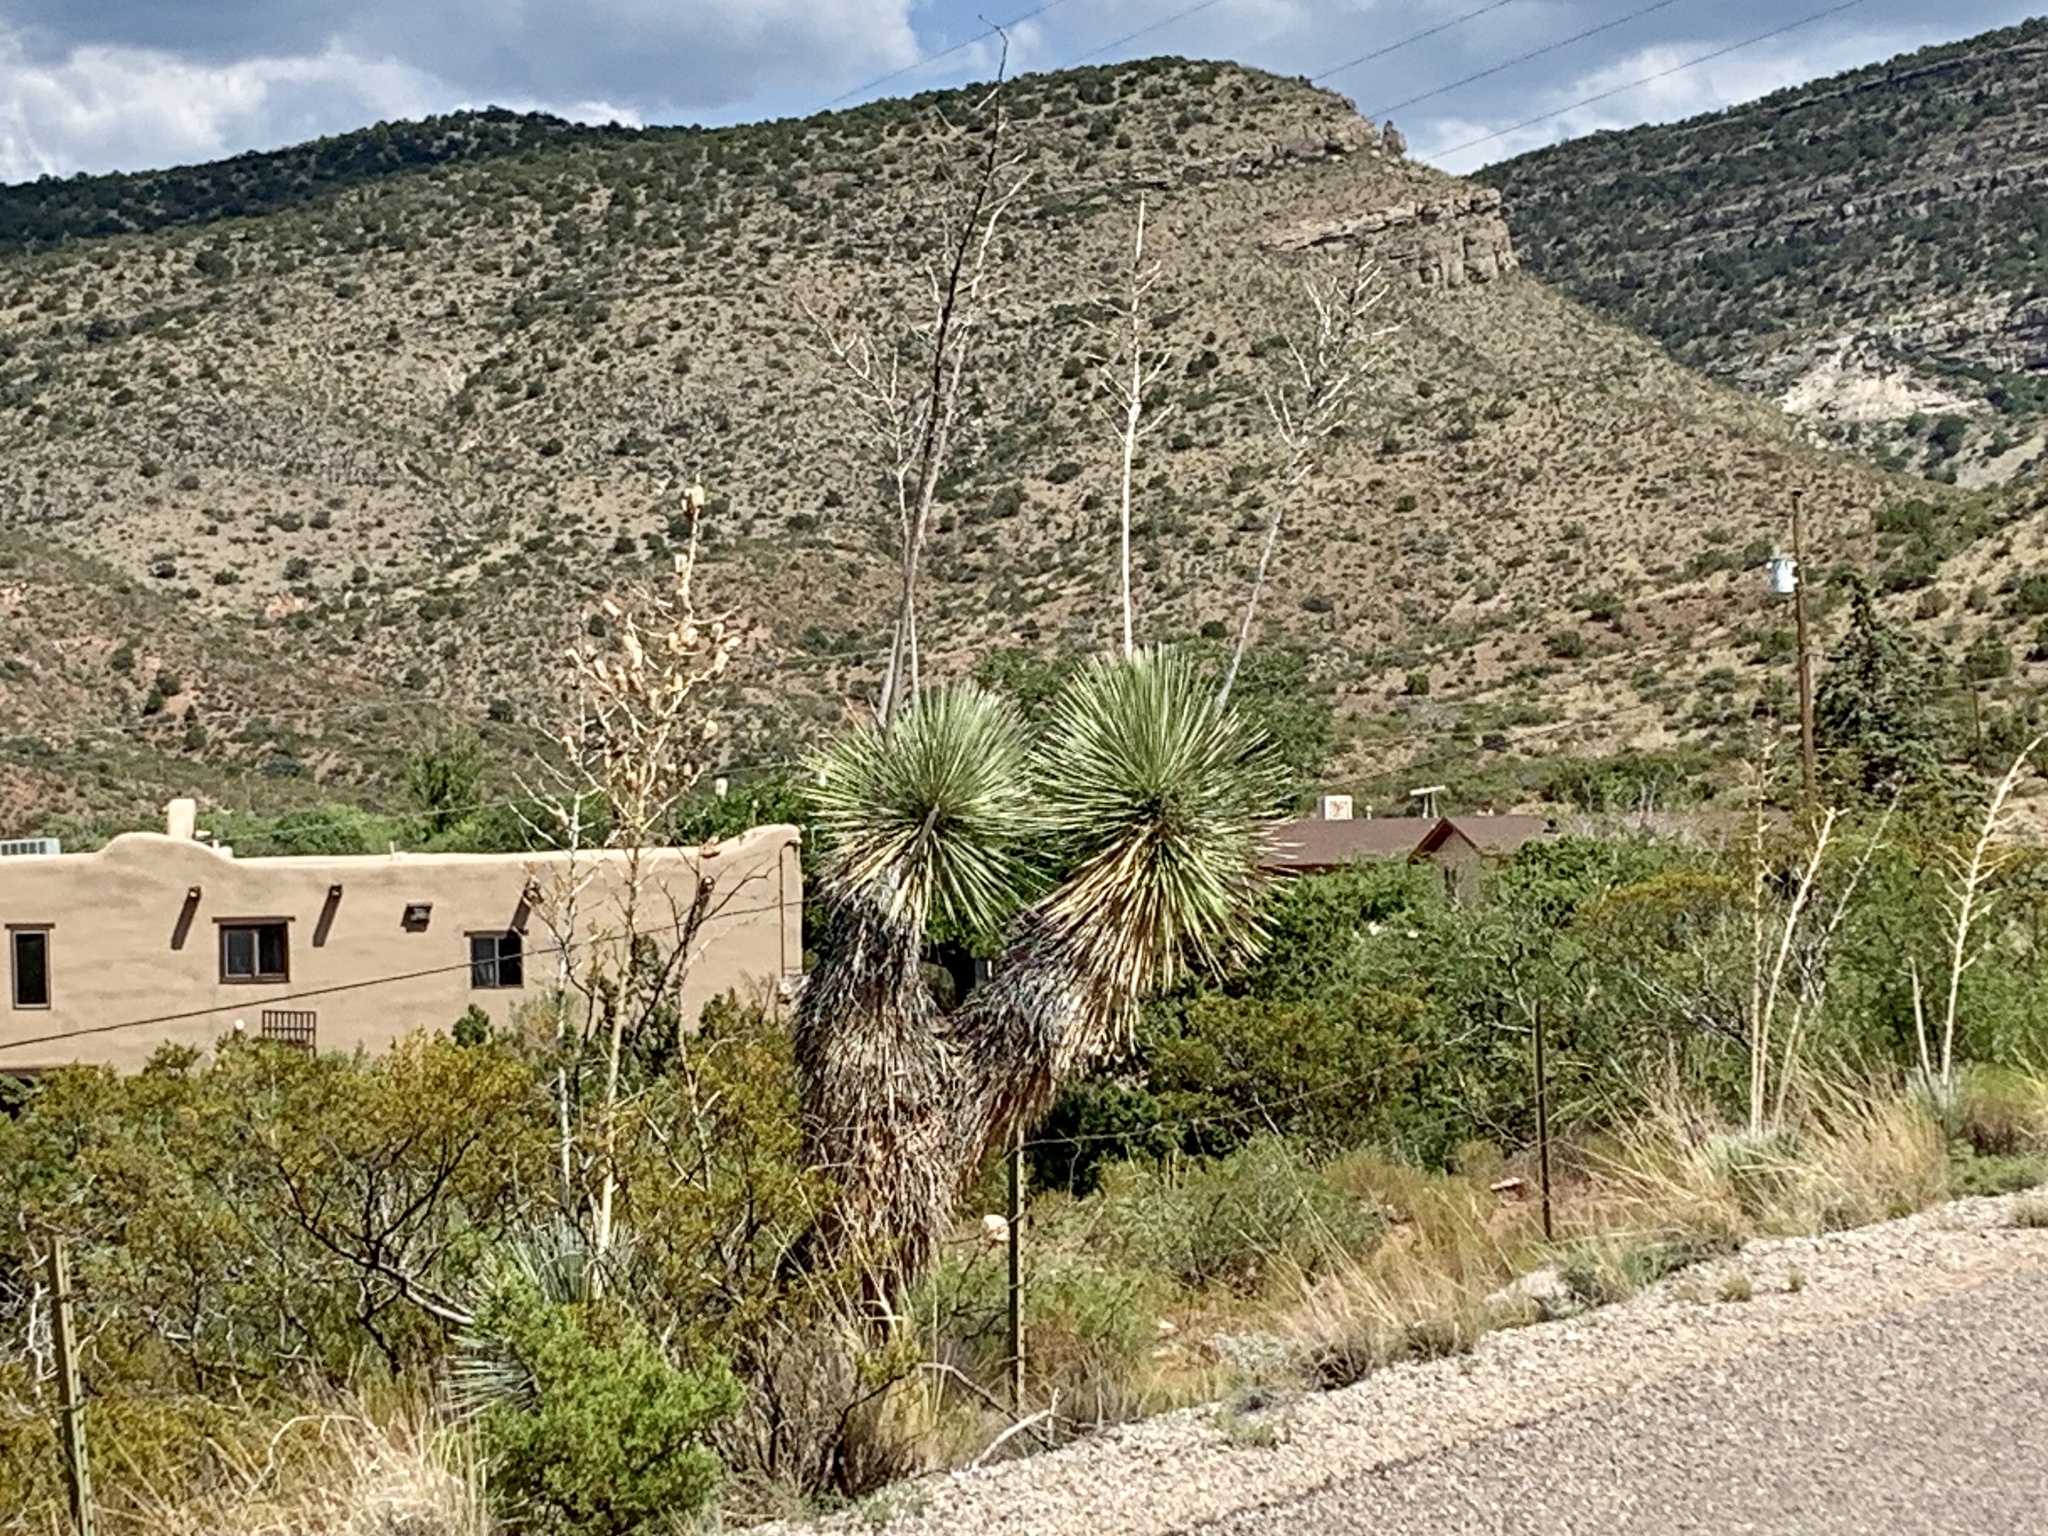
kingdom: Plantae
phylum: Tracheophyta
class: Liliopsida
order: Asparagales
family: Asparagaceae
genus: Yucca
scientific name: Yucca elata
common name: Palmella
